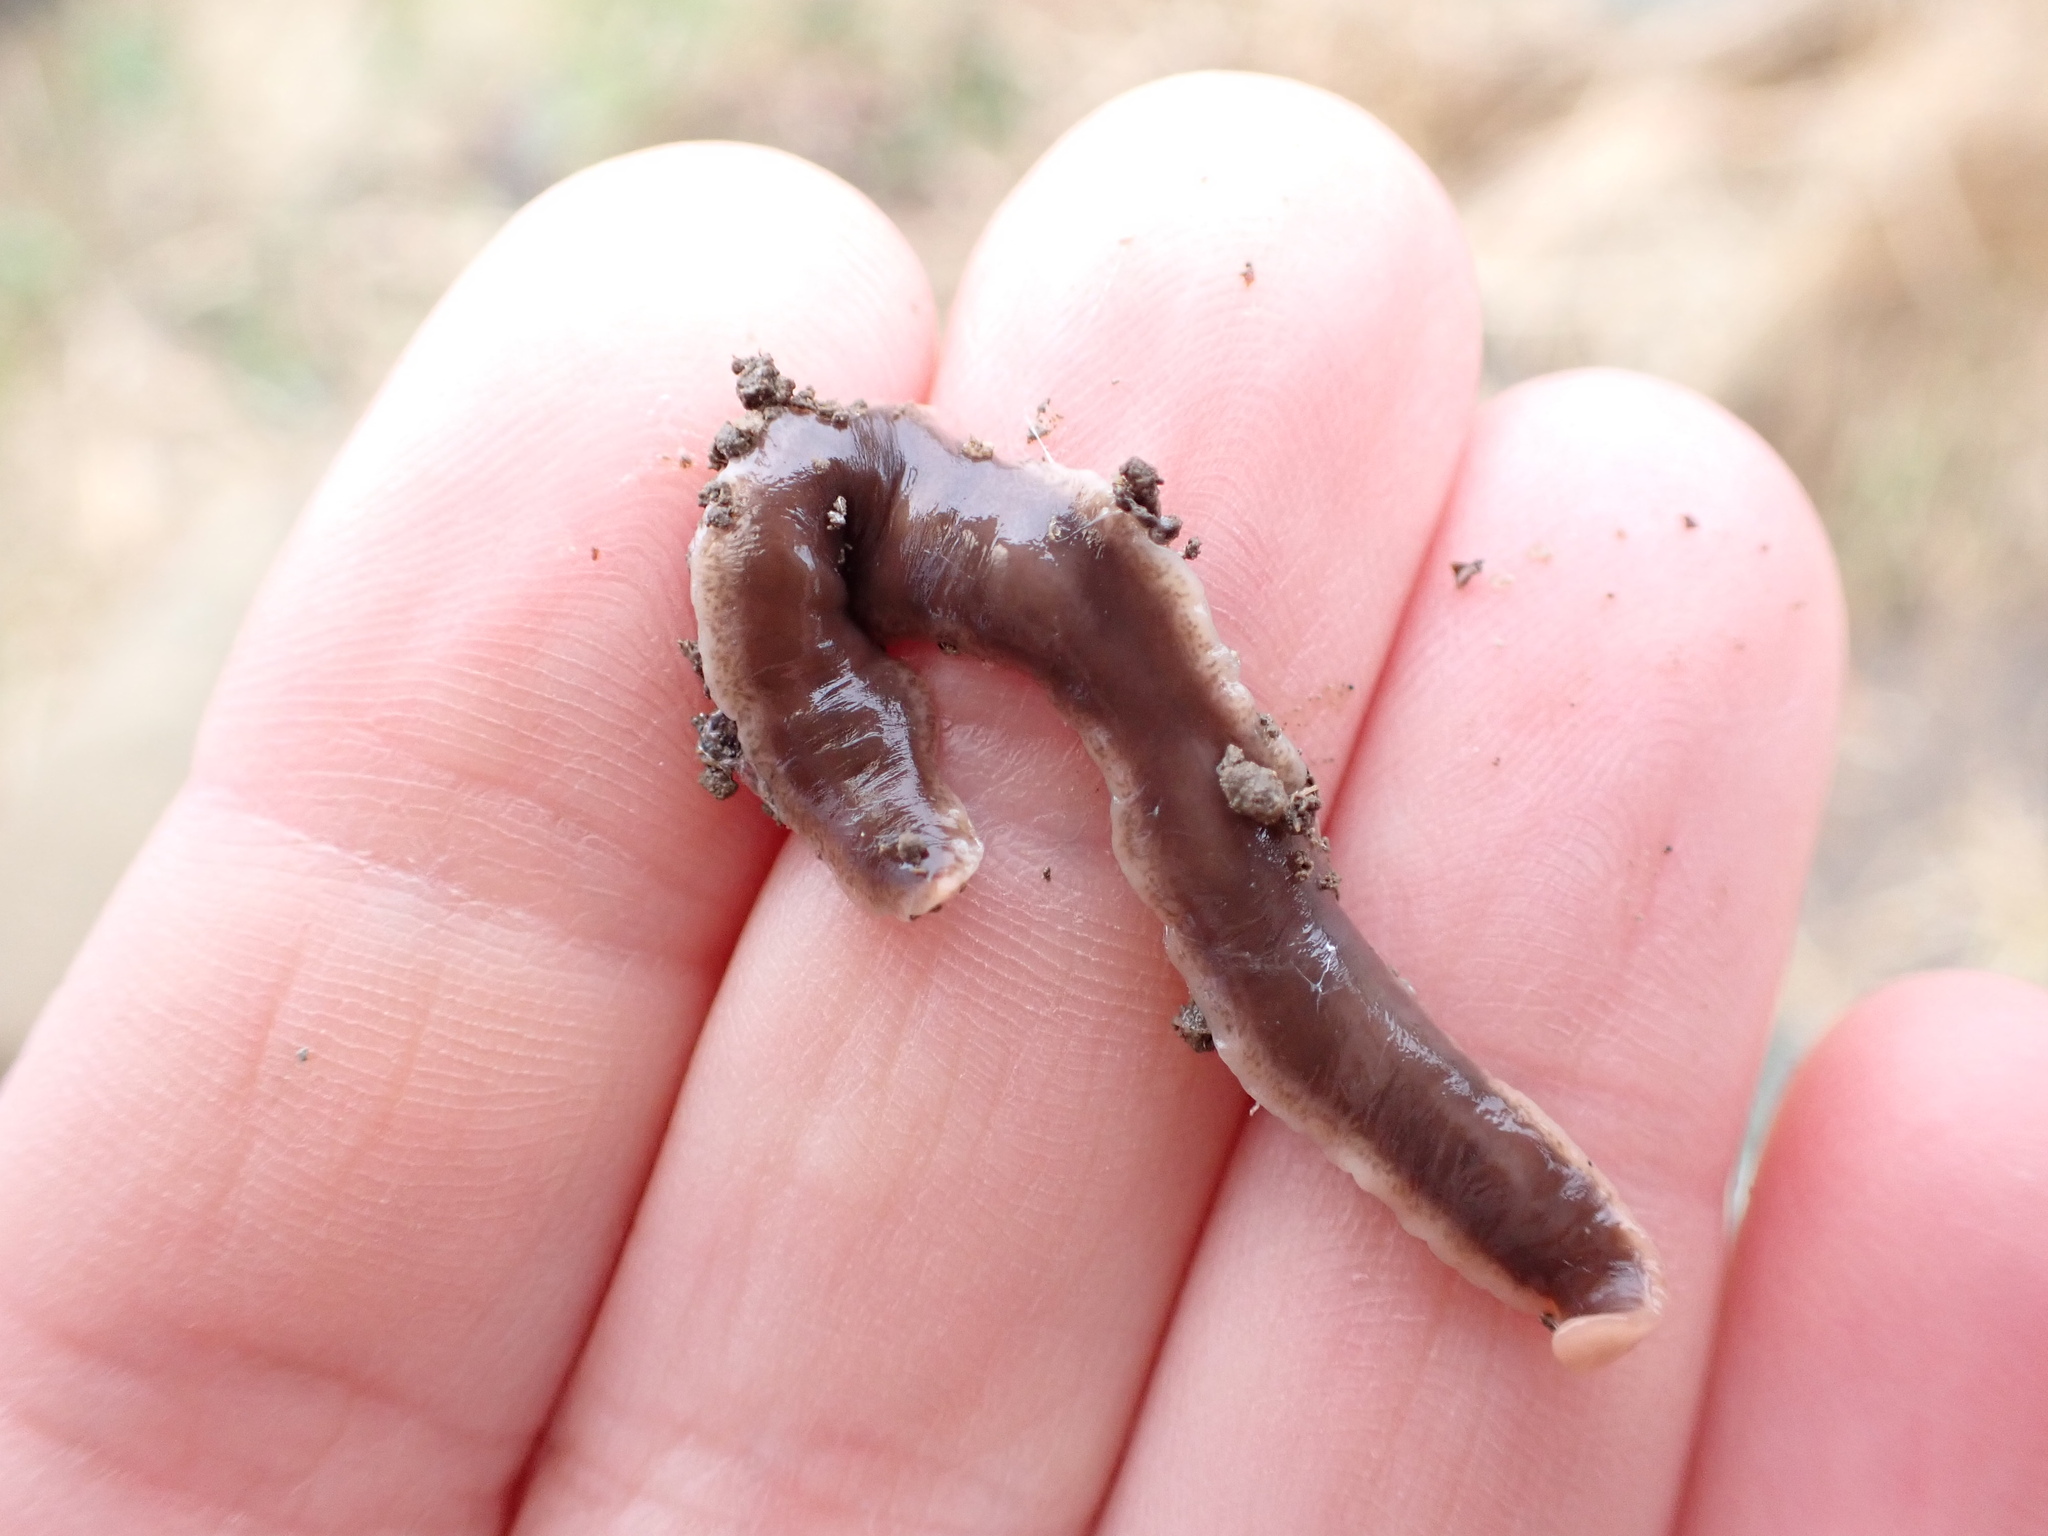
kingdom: Animalia
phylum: Platyhelminthes
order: Tricladida
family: Geoplanidae
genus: Arthurdendyus
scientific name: Arthurdendyus triangulatus
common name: New zealand flatworm
